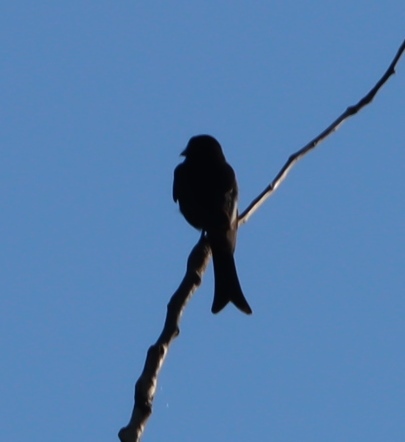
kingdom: Animalia
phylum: Chordata
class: Aves
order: Passeriformes
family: Dicruridae
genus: Dicrurus
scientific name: Dicrurus adsimilis
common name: Fork-tailed drongo
